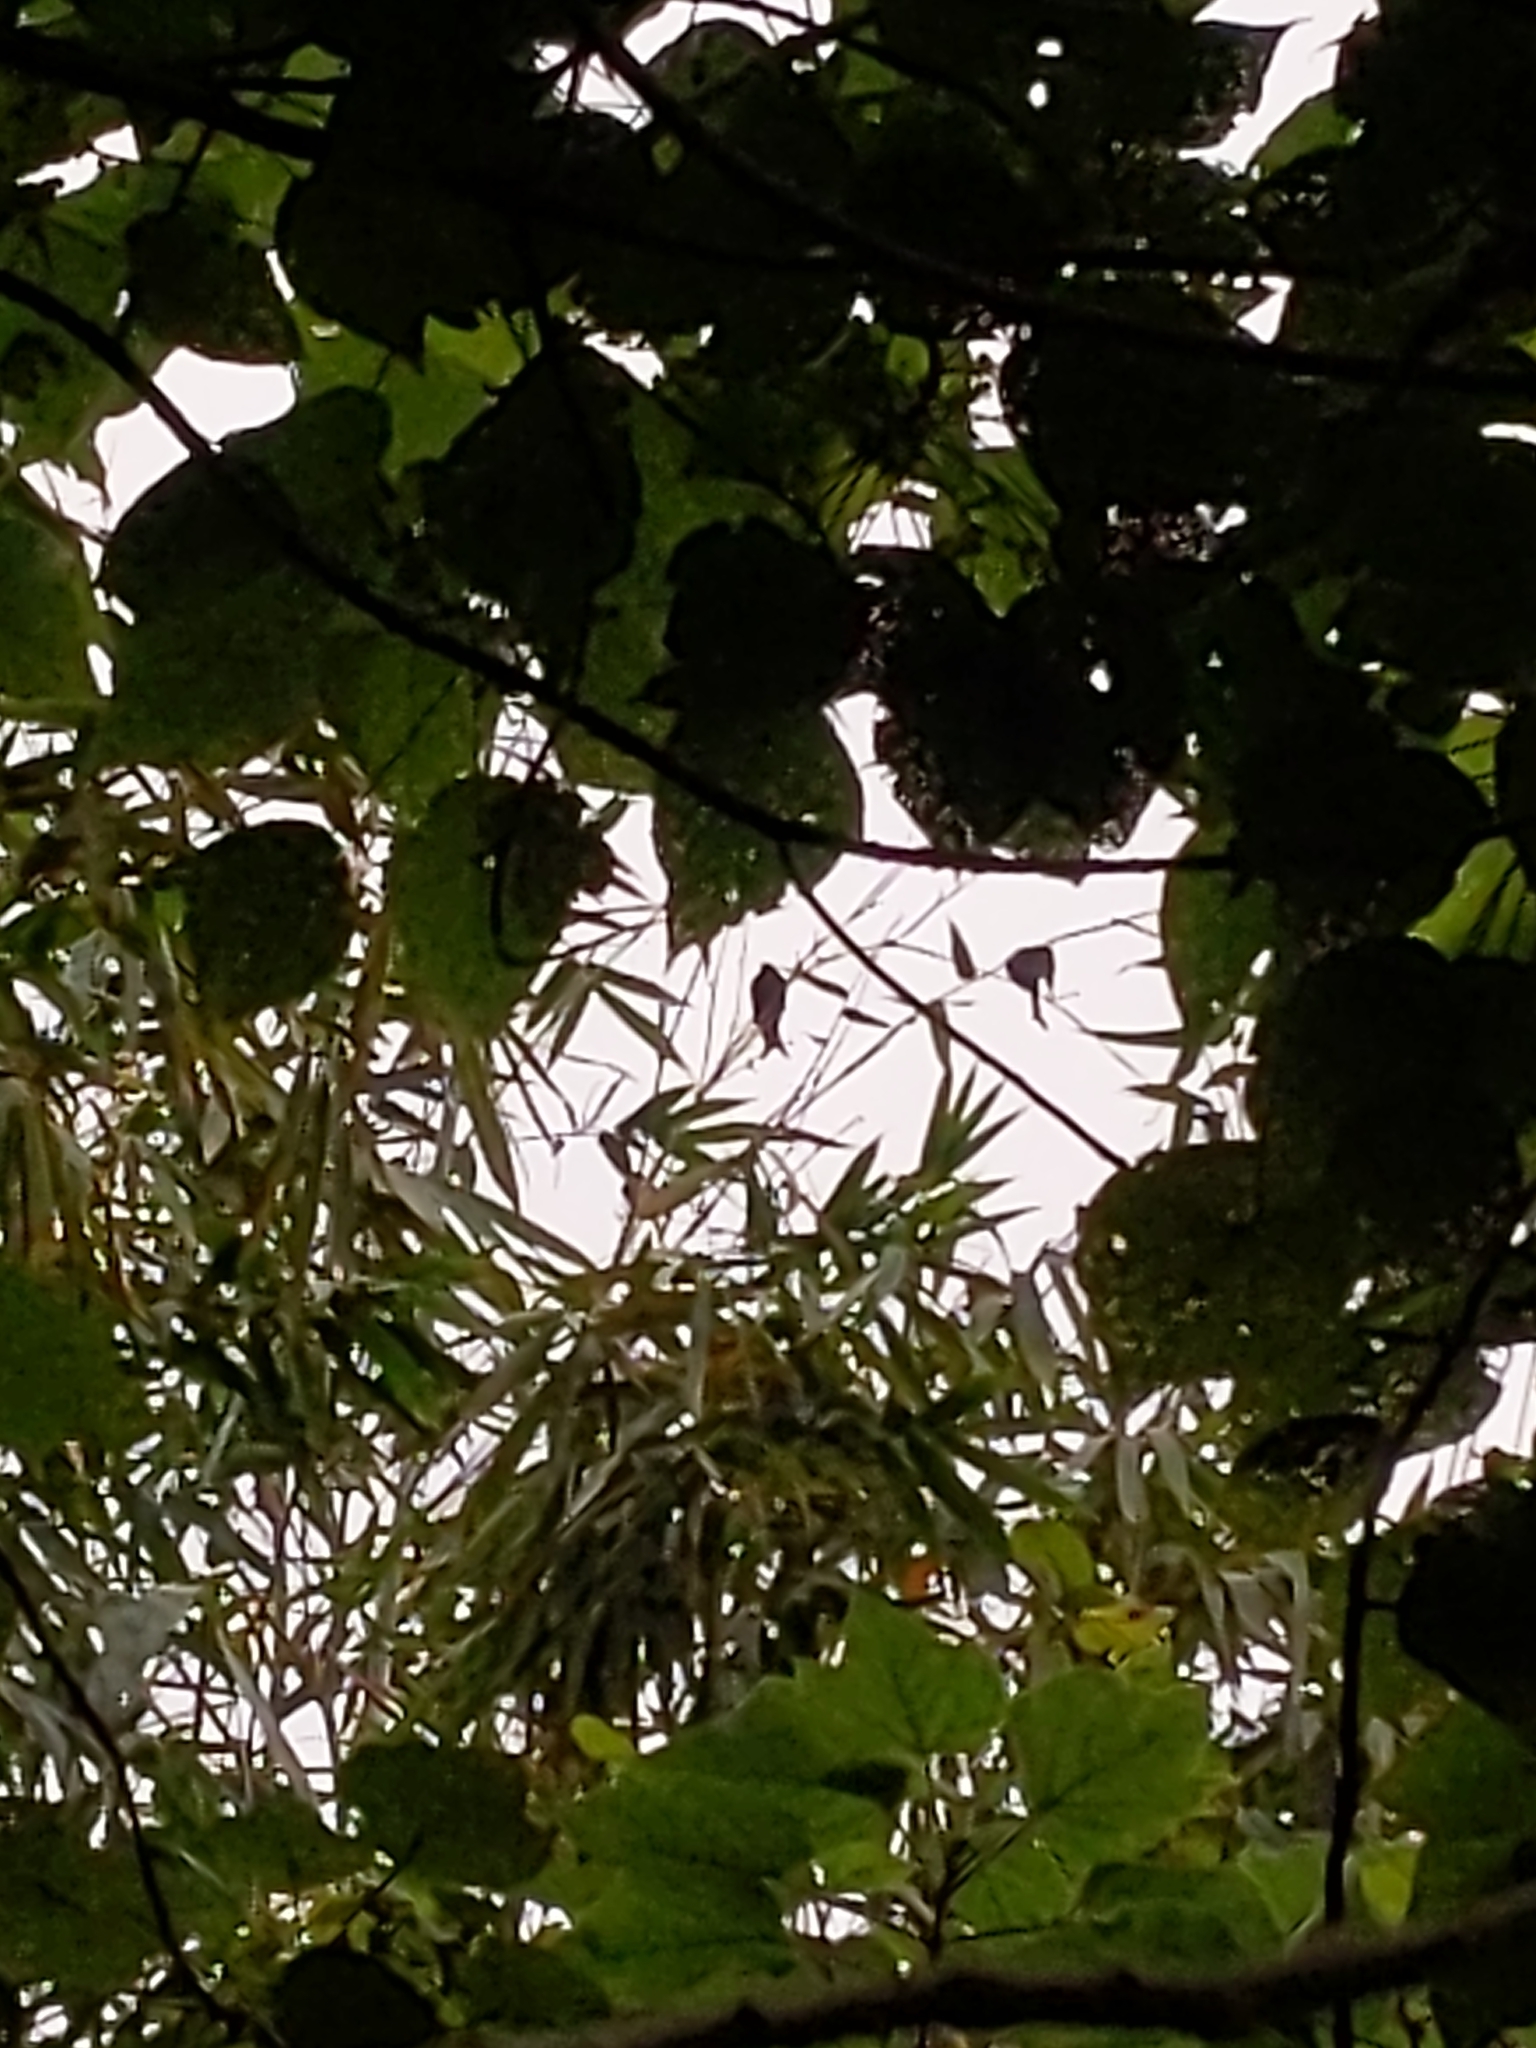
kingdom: Animalia
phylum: Chordata
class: Aves
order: Passeriformes
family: Dicruridae
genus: Dicrurus
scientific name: Dicrurus aeneus
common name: Bronzed drongo
